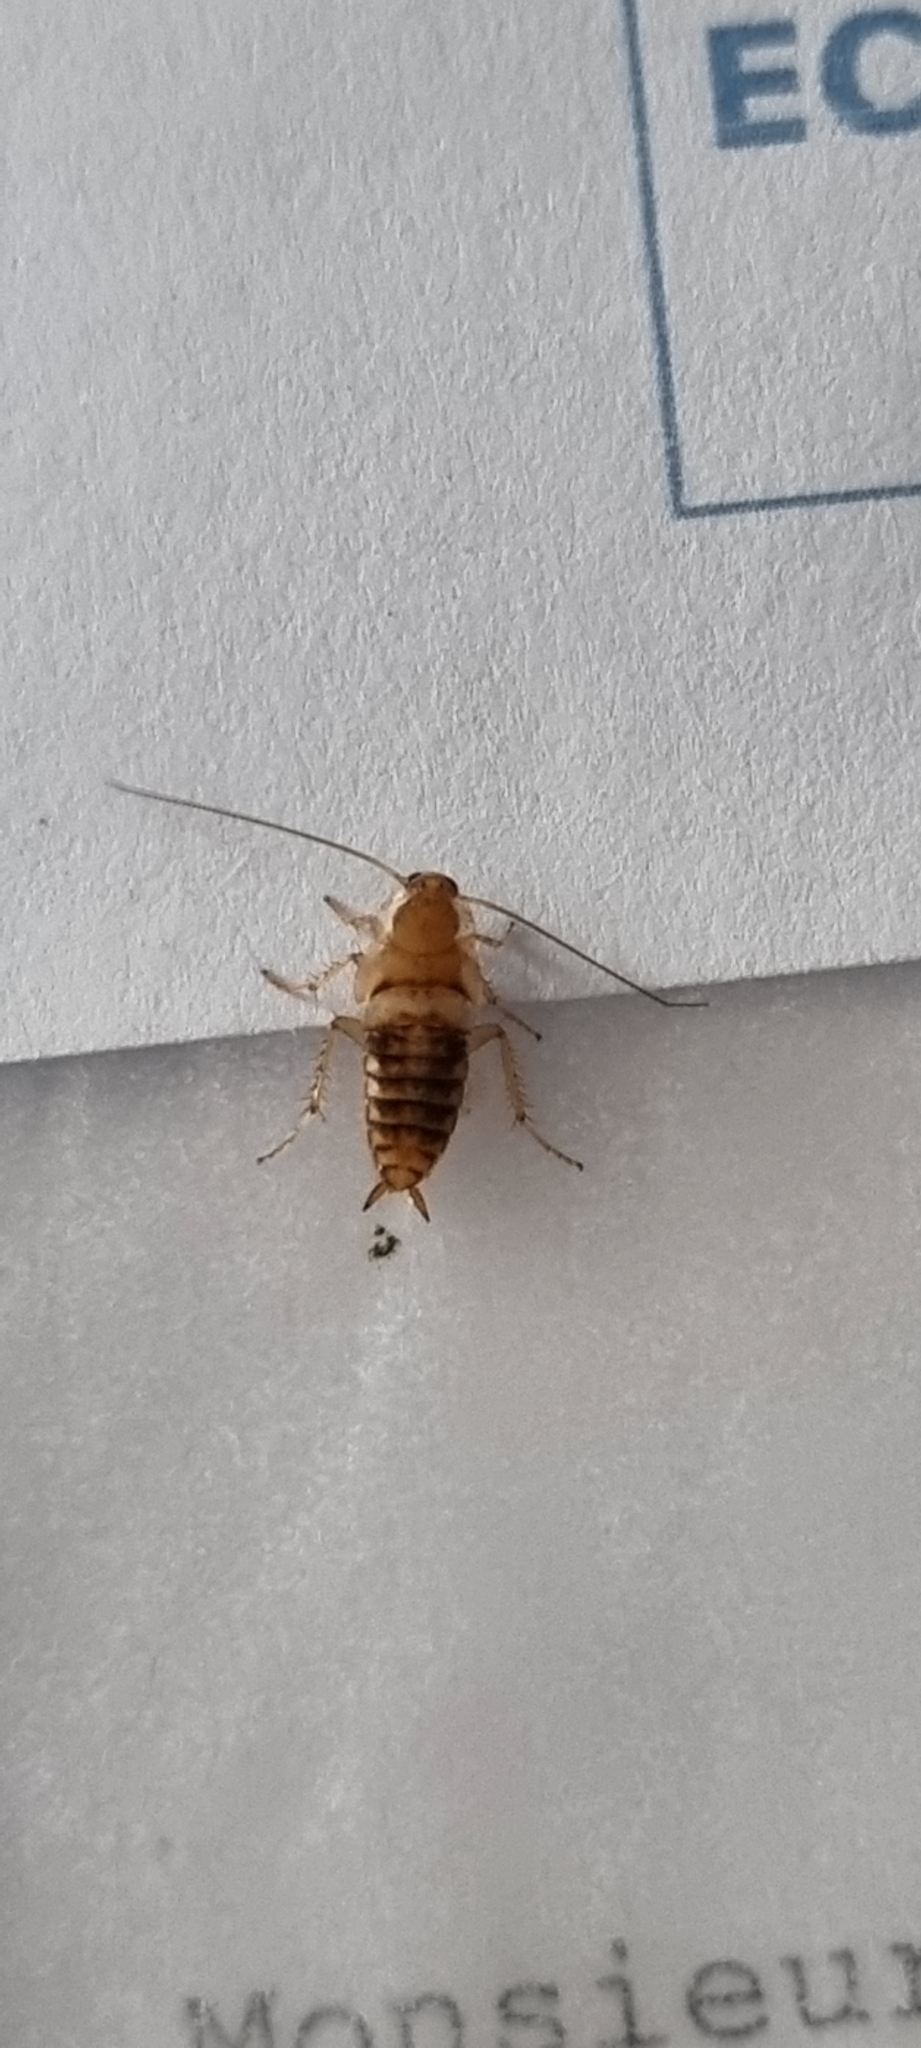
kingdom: Animalia
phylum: Arthropoda
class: Insecta
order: Blattodea
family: Ectobiidae
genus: Planuncus
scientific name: Planuncus tingitanus
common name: Variable cockroach
